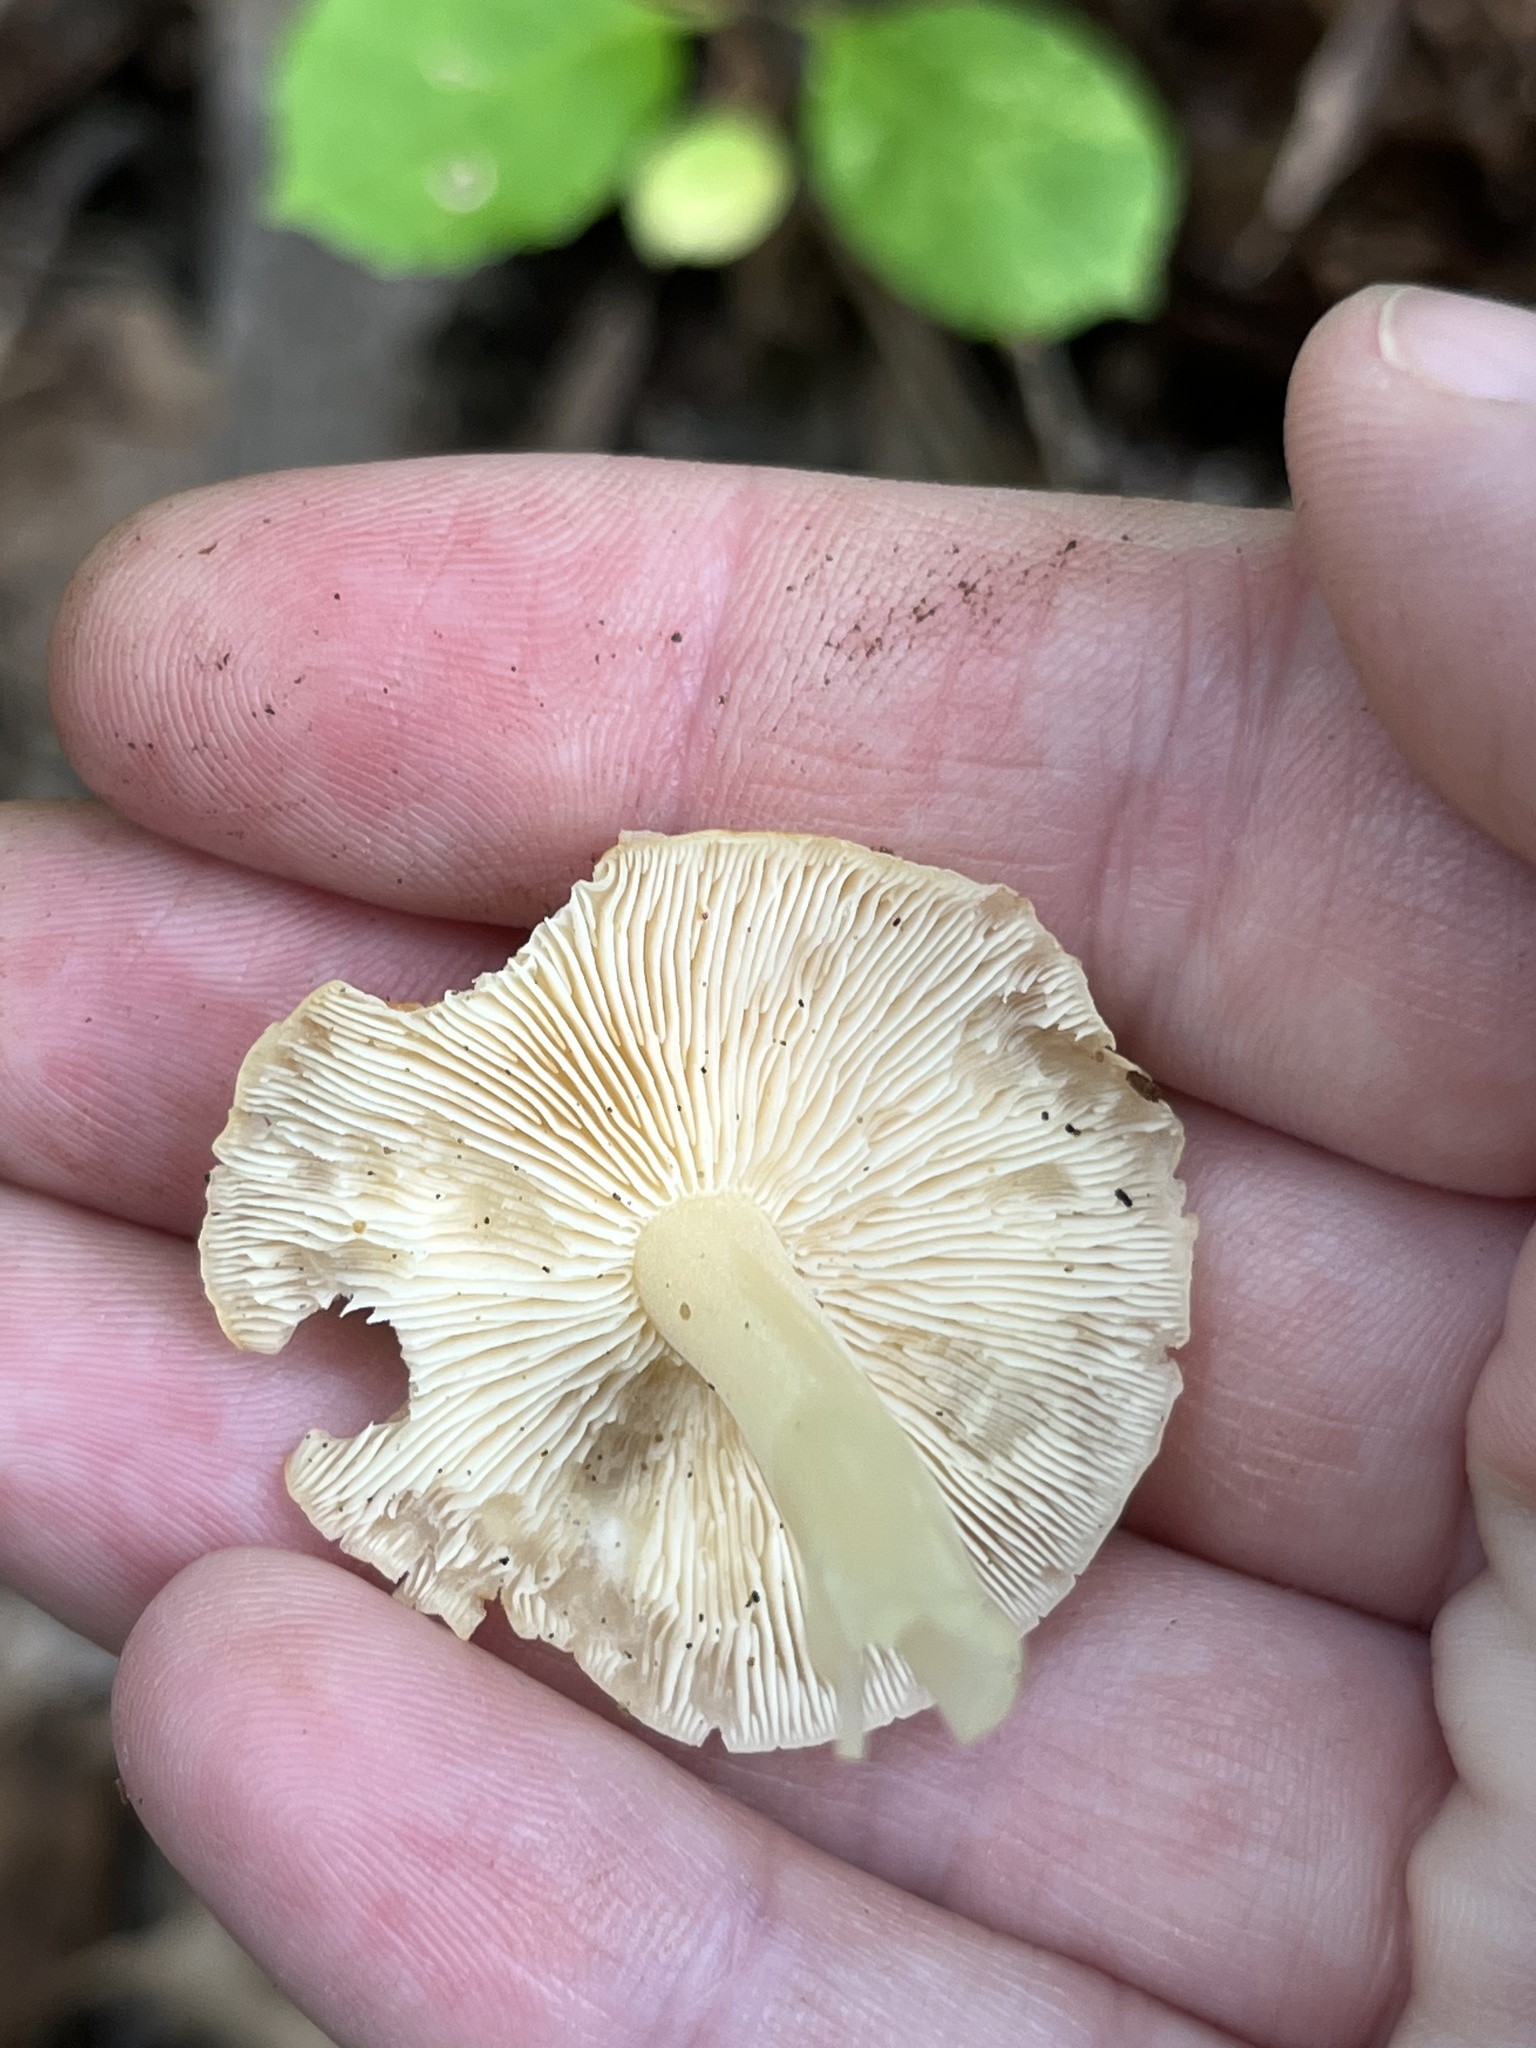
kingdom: Fungi
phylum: Basidiomycota
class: Agaricomycetes
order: Agaricales
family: Marasmiaceae
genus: Marasmius
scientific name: Marasmius strictipes
